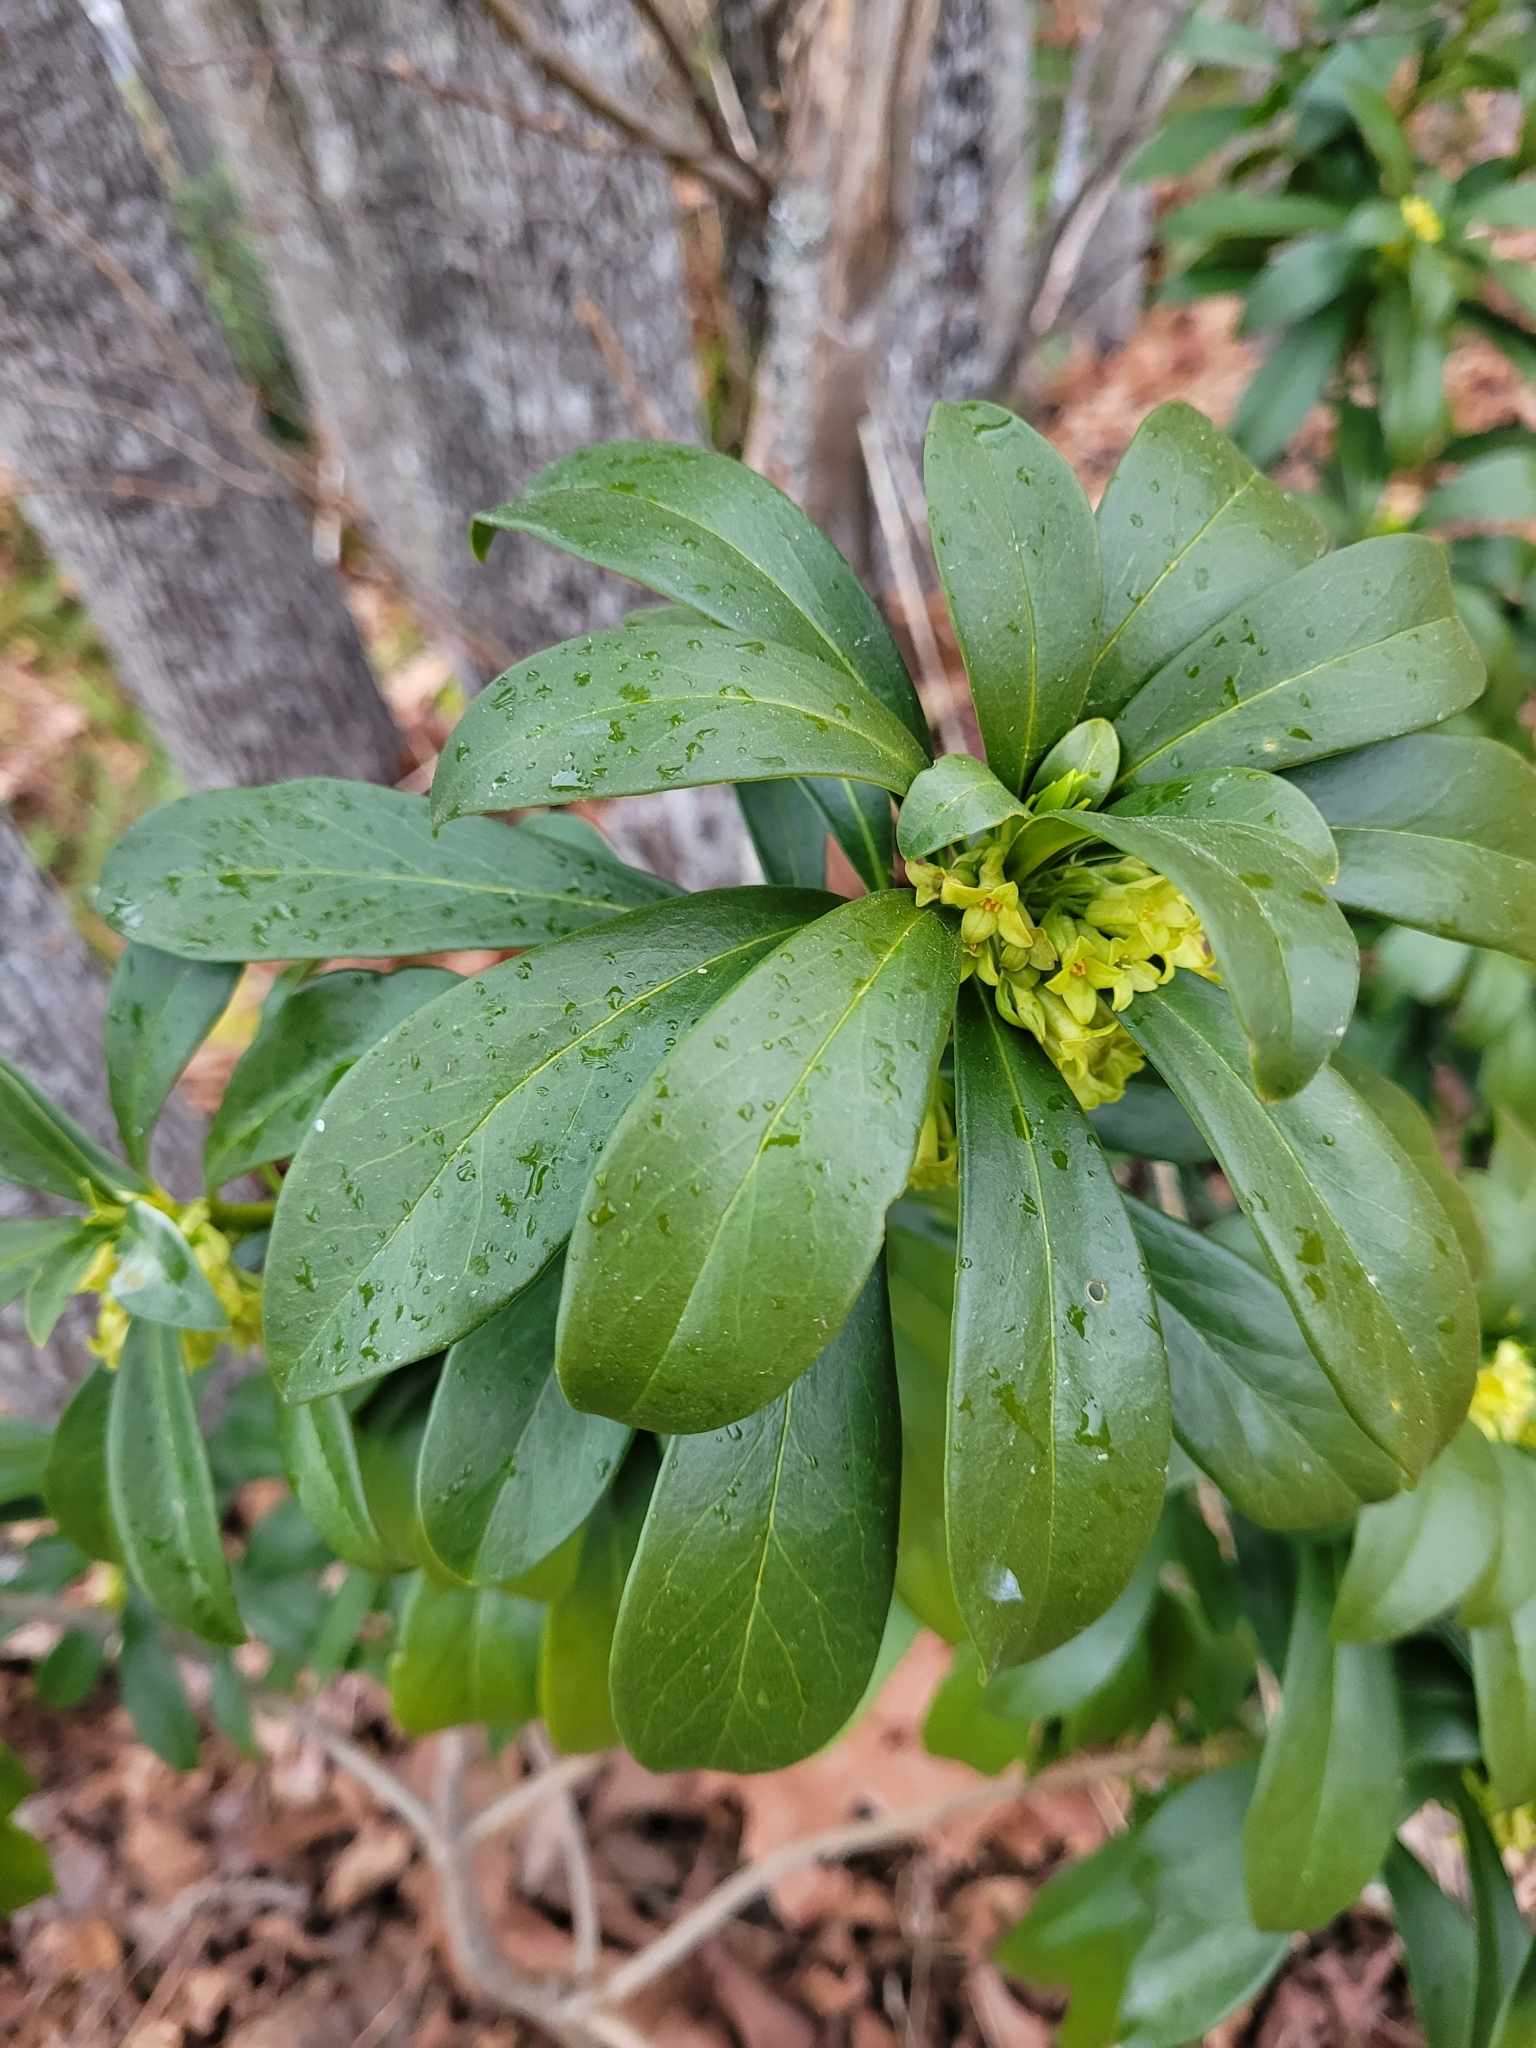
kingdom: Plantae
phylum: Tracheophyta
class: Magnoliopsida
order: Malvales
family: Thymelaeaceae
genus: Daphne
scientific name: Daphne laureola
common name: Spurge-laurel
